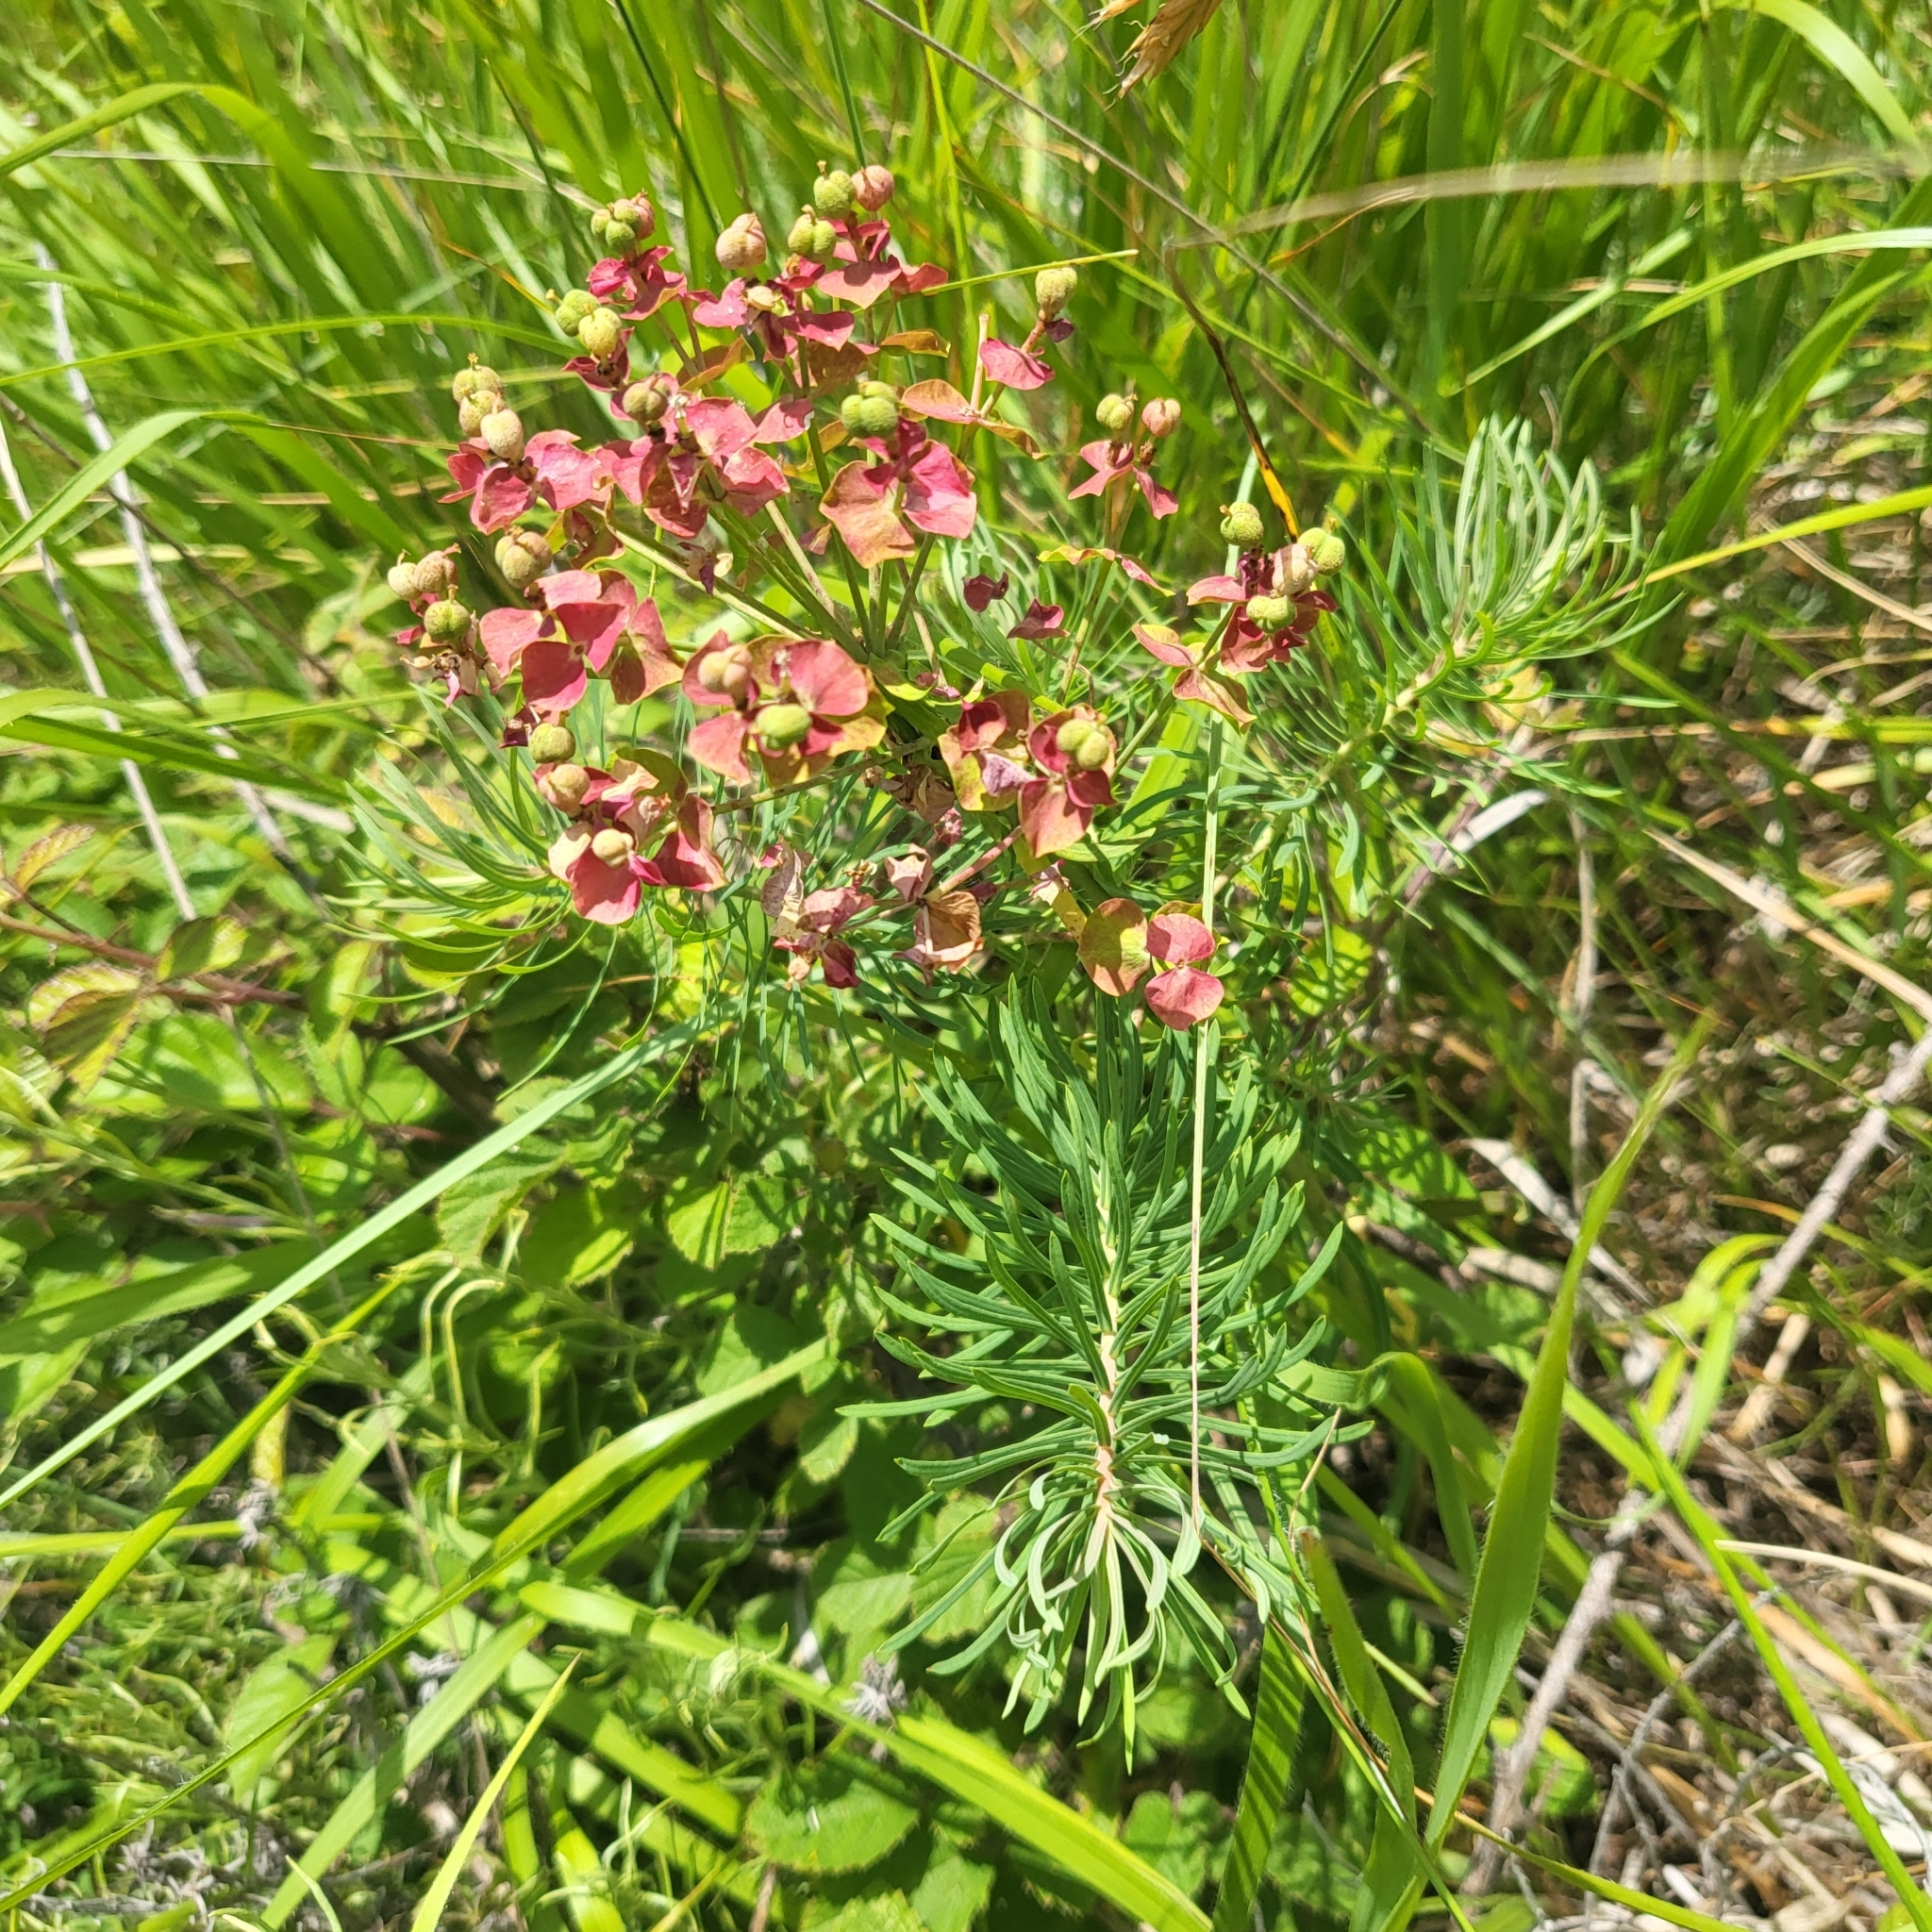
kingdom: Plantae
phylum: Tracheophyta
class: Magnoliopsida
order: Malpighiales
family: Euphorbiaceae
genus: Euphorbia
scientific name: Euphorbia cyparissias
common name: Cypress spurge
